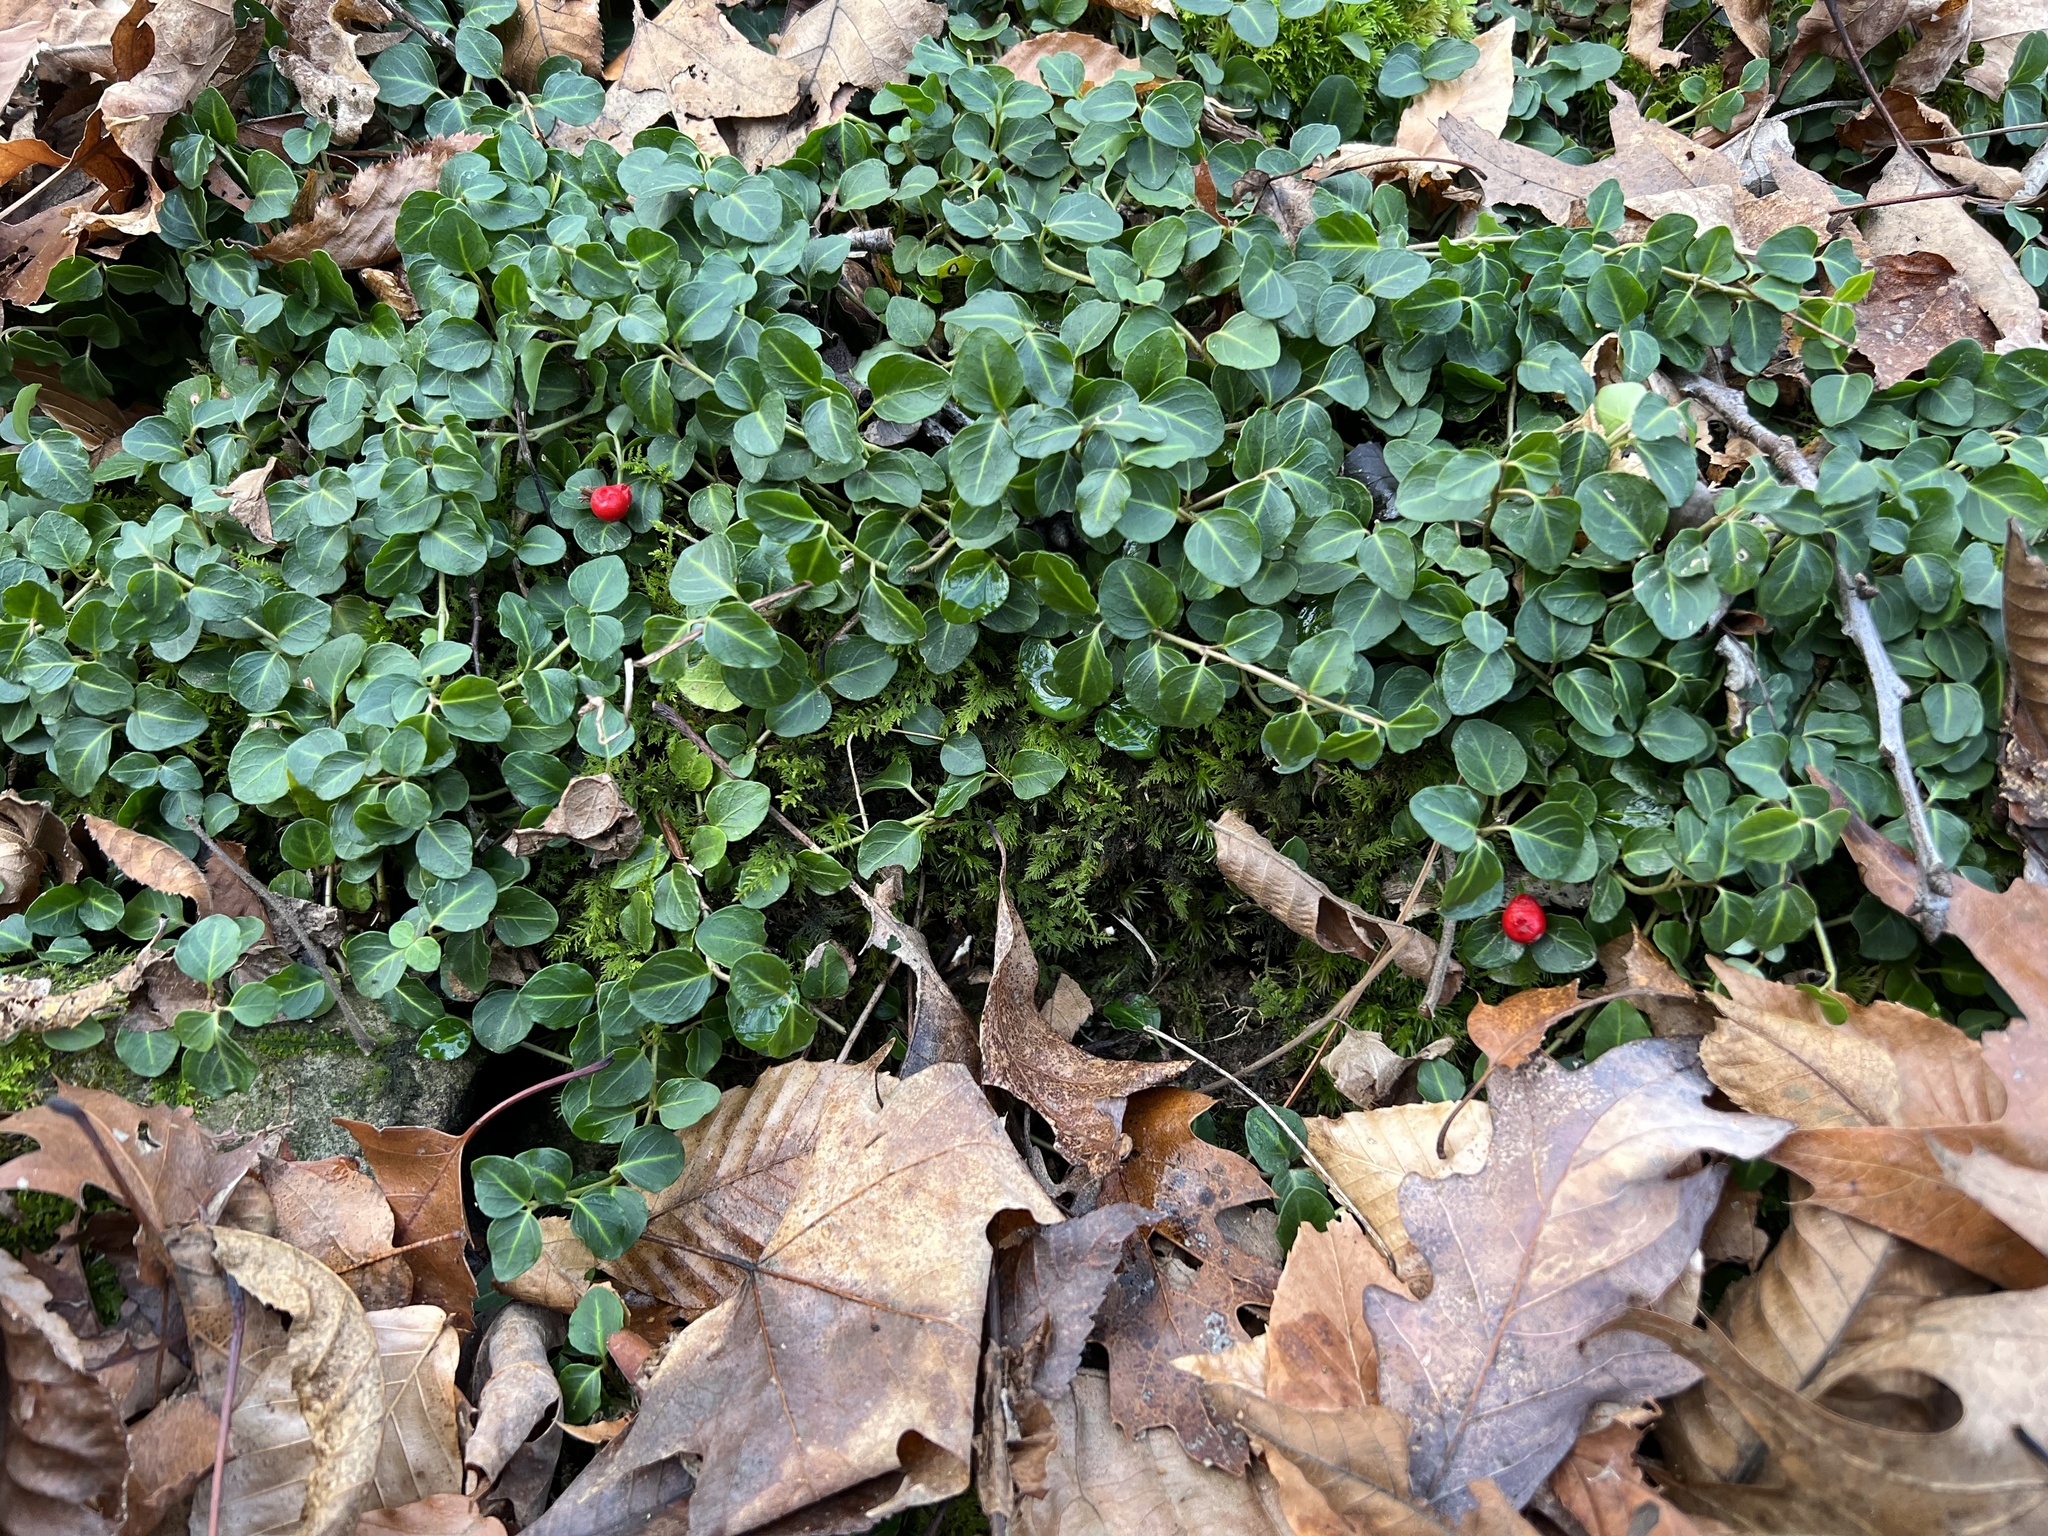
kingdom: Plantae
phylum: Tracheophyta
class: Magnoliopsida
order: Gentianales
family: Rubiaceae
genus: Mitchella
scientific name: Mitchella repens
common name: Partridge-berry
